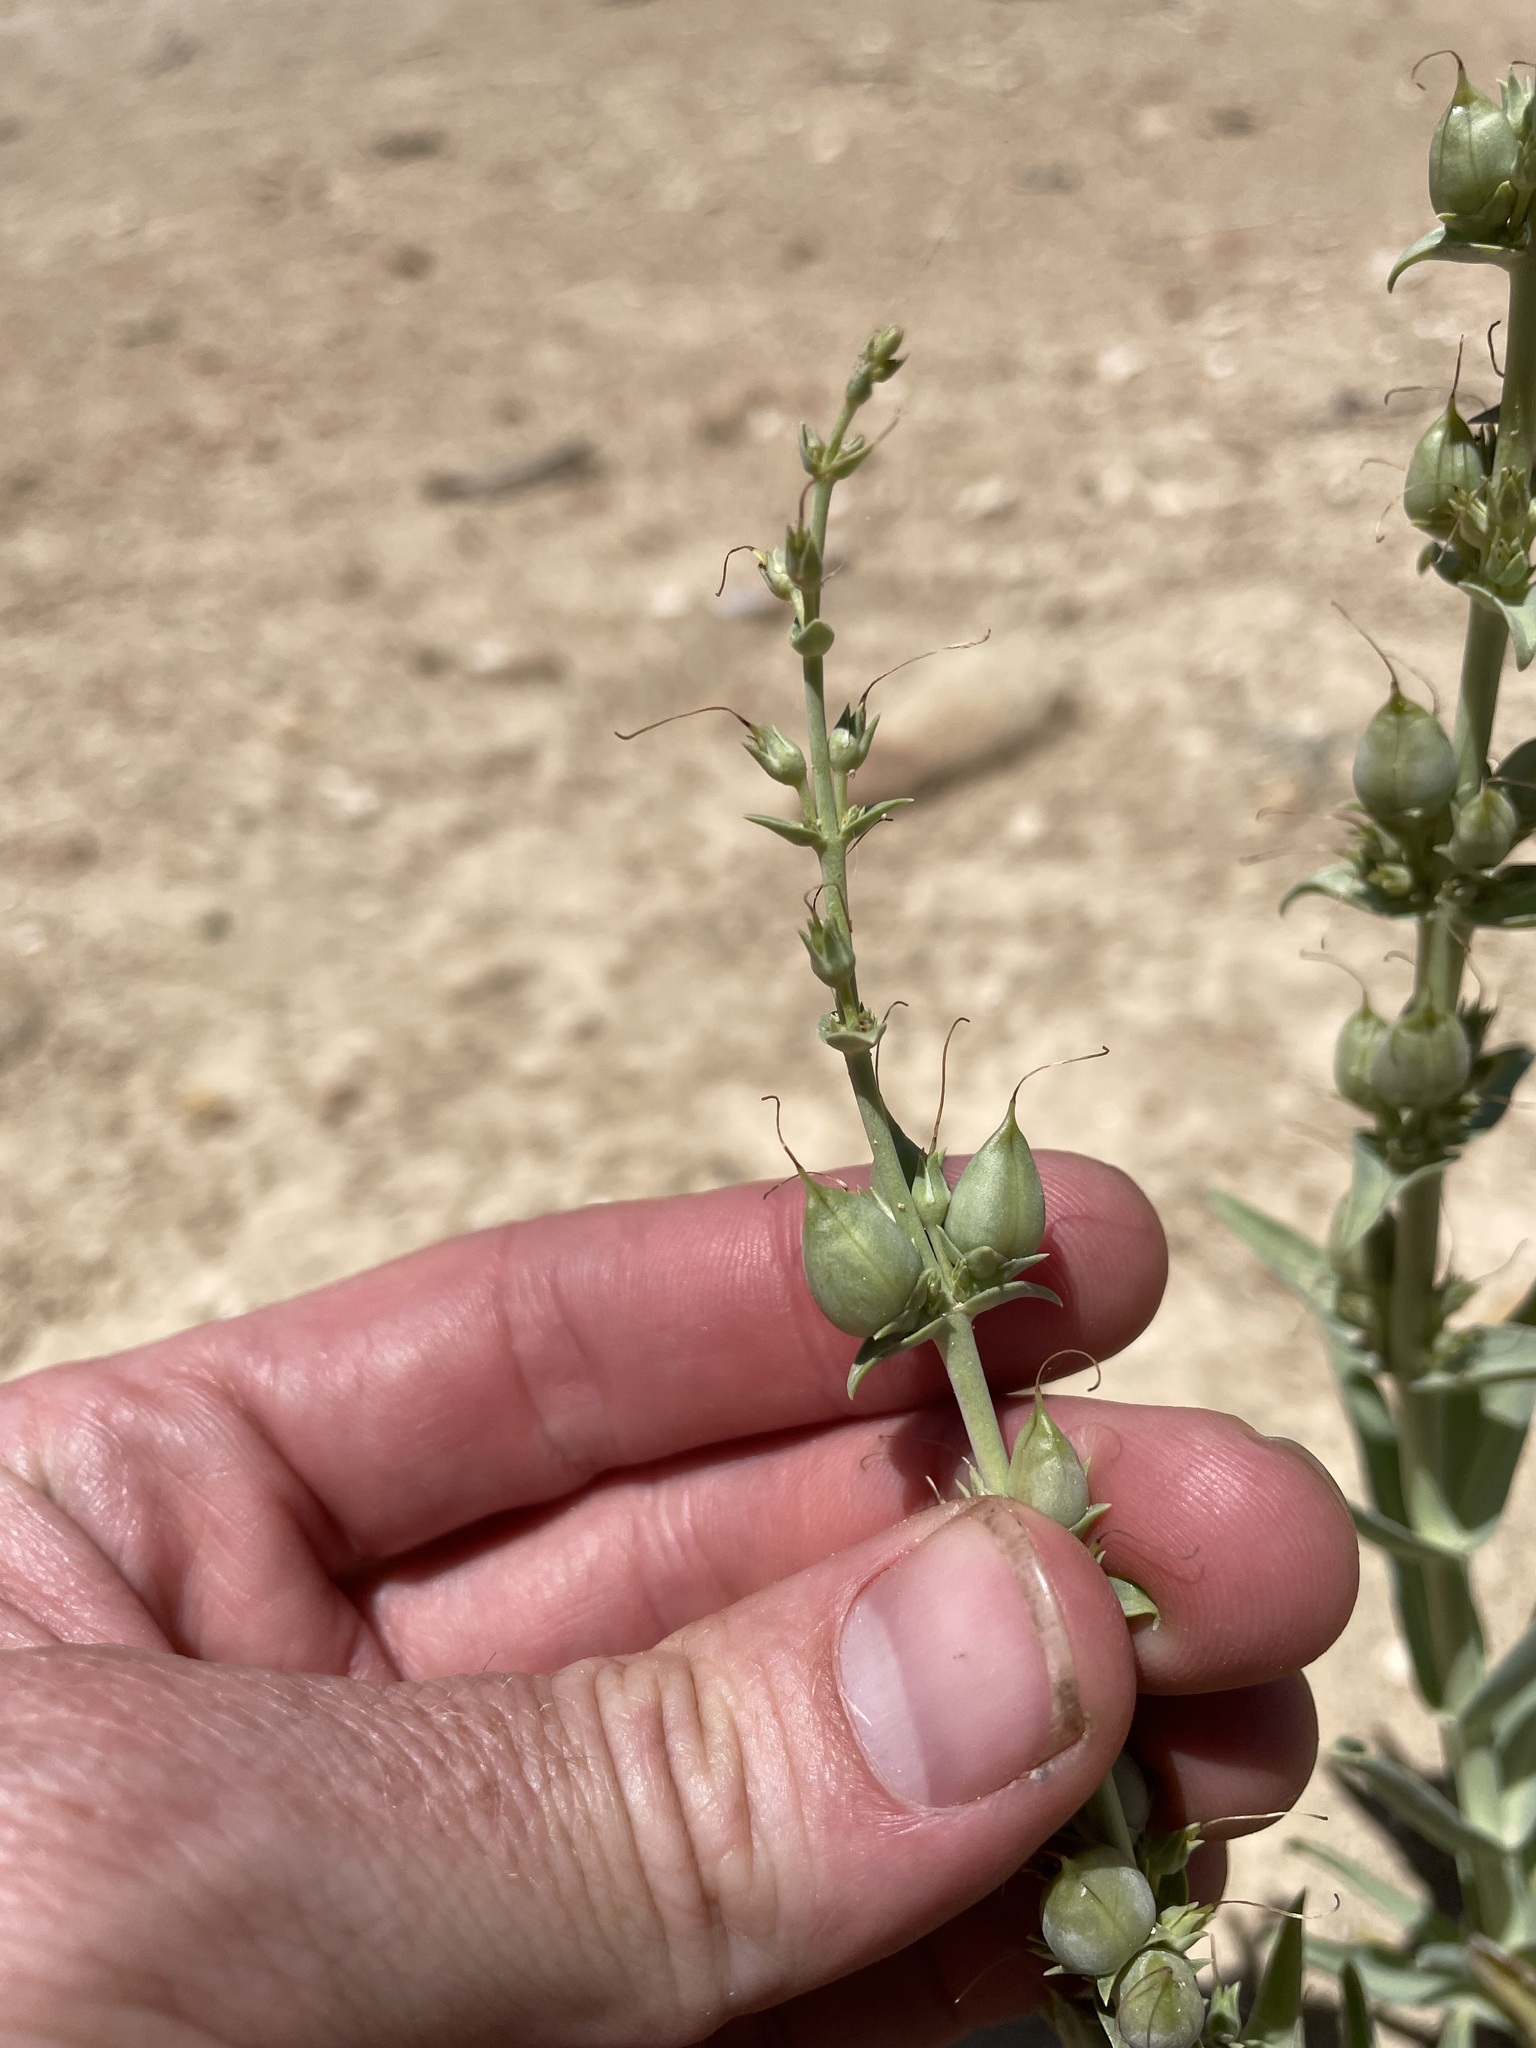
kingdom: Plantae
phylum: Tracheophyta
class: Magnoliopsida
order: Lamiales
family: Plantaginaceae
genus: Penstemon
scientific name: Penstemon angustifolius
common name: Narrow beardtongue
